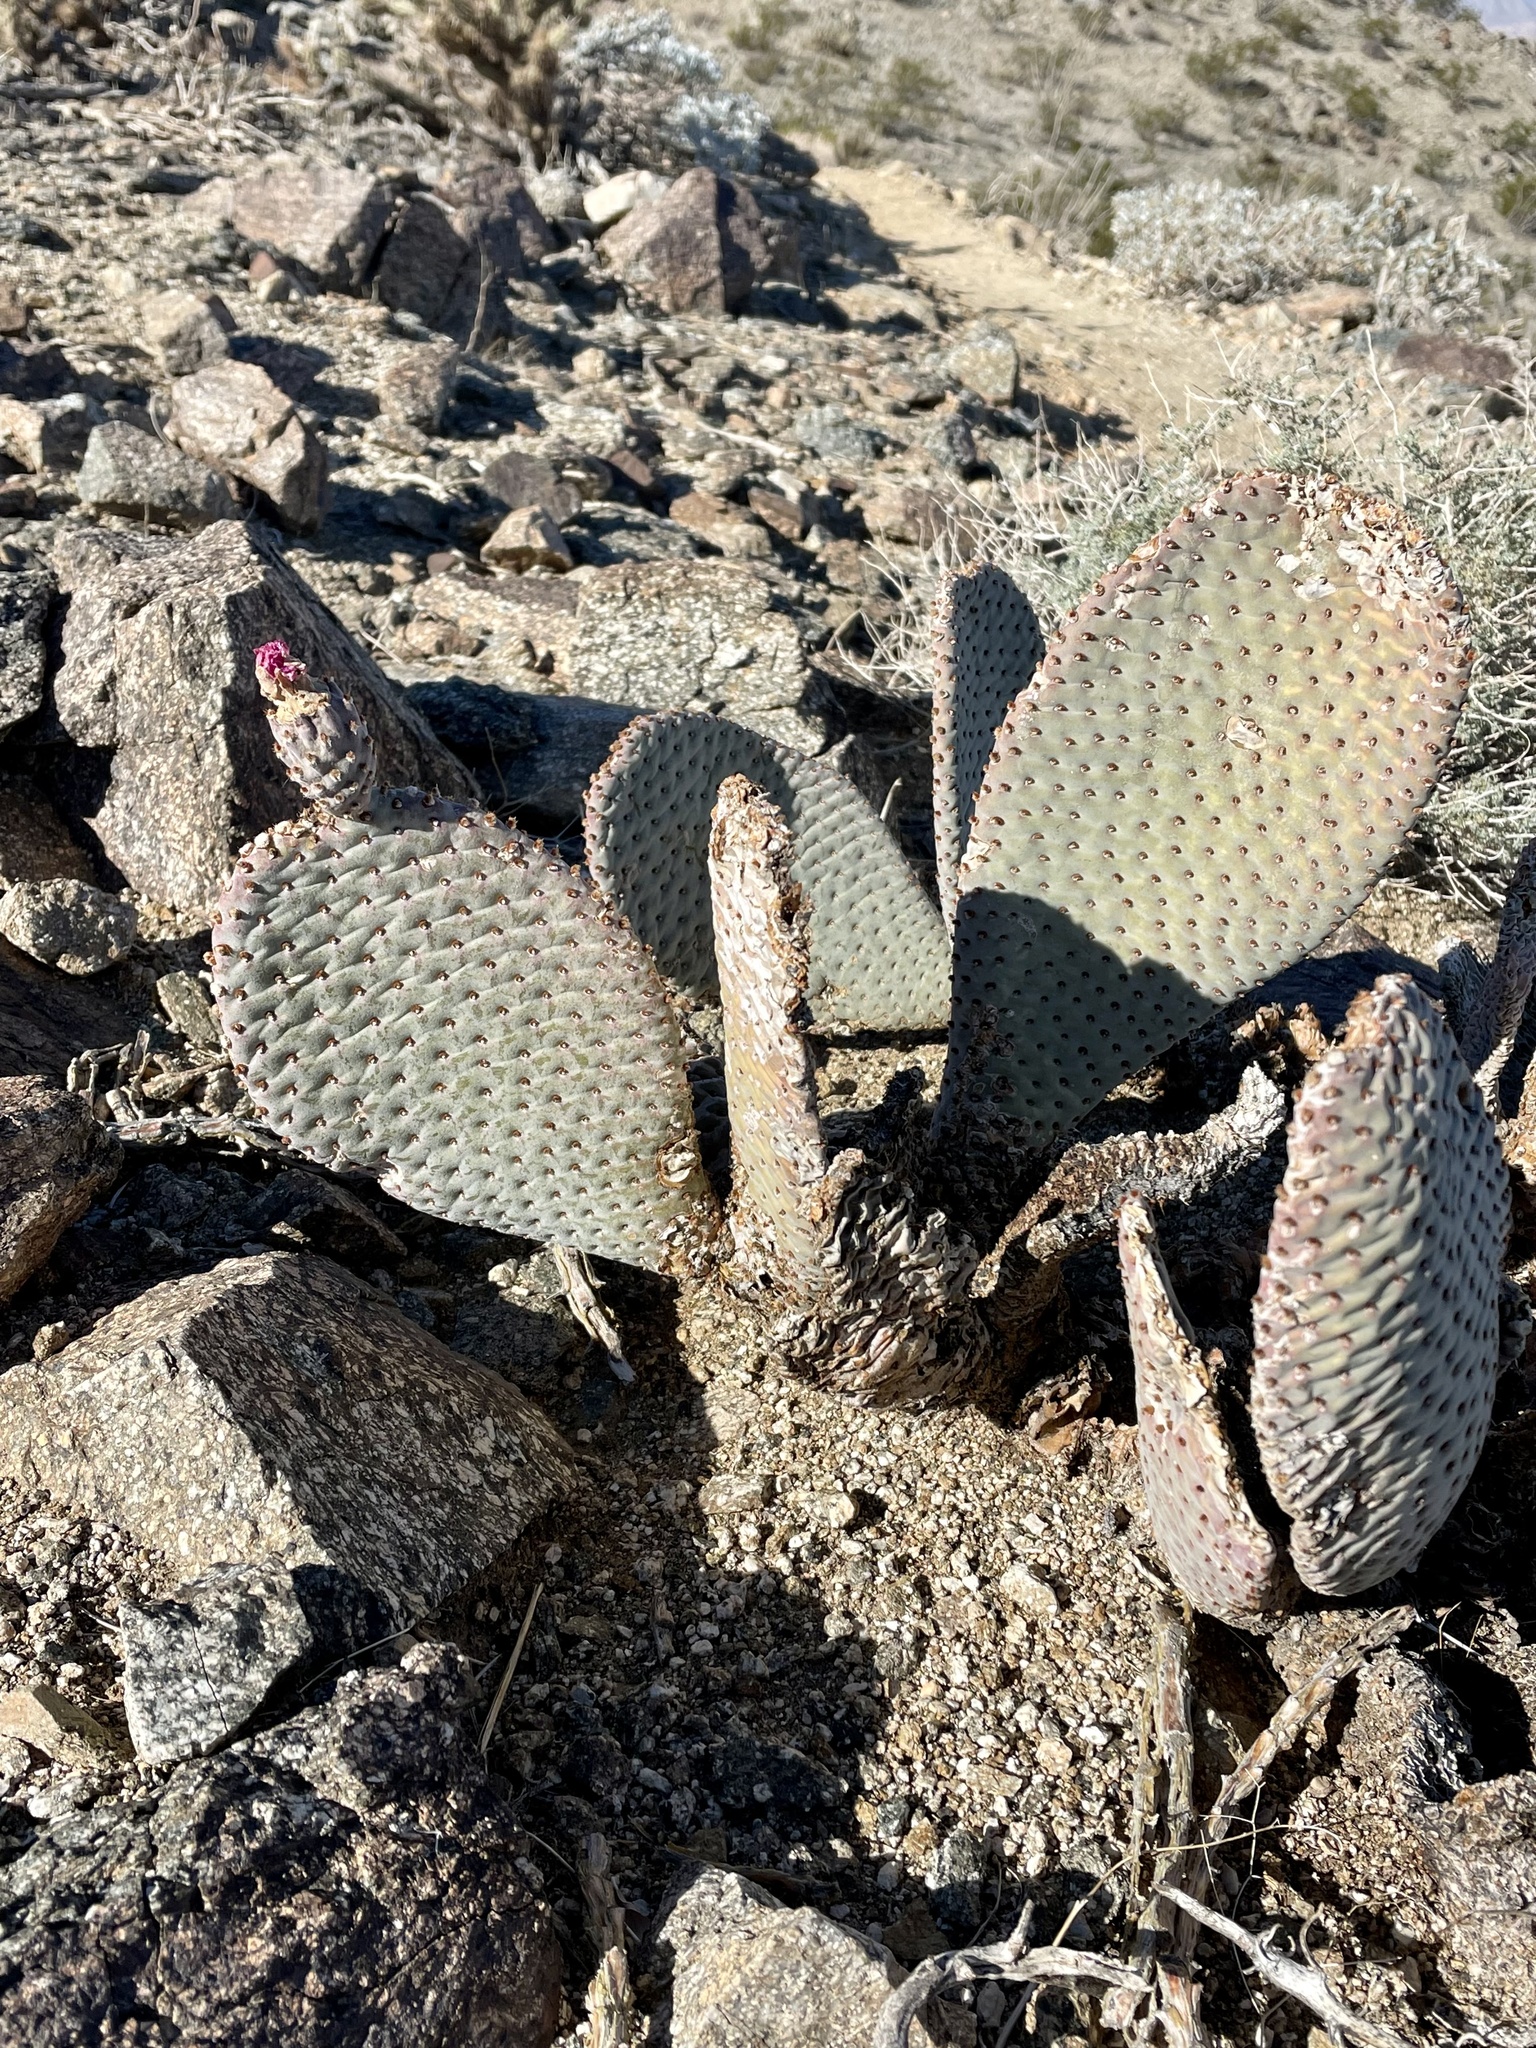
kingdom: Plantae
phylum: Tracheophyta
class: Magnoliopsida
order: Caryophyllales
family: Cactaceae
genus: Opuntia
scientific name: Opuntia basilaris
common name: Beavertail prickly-pear
